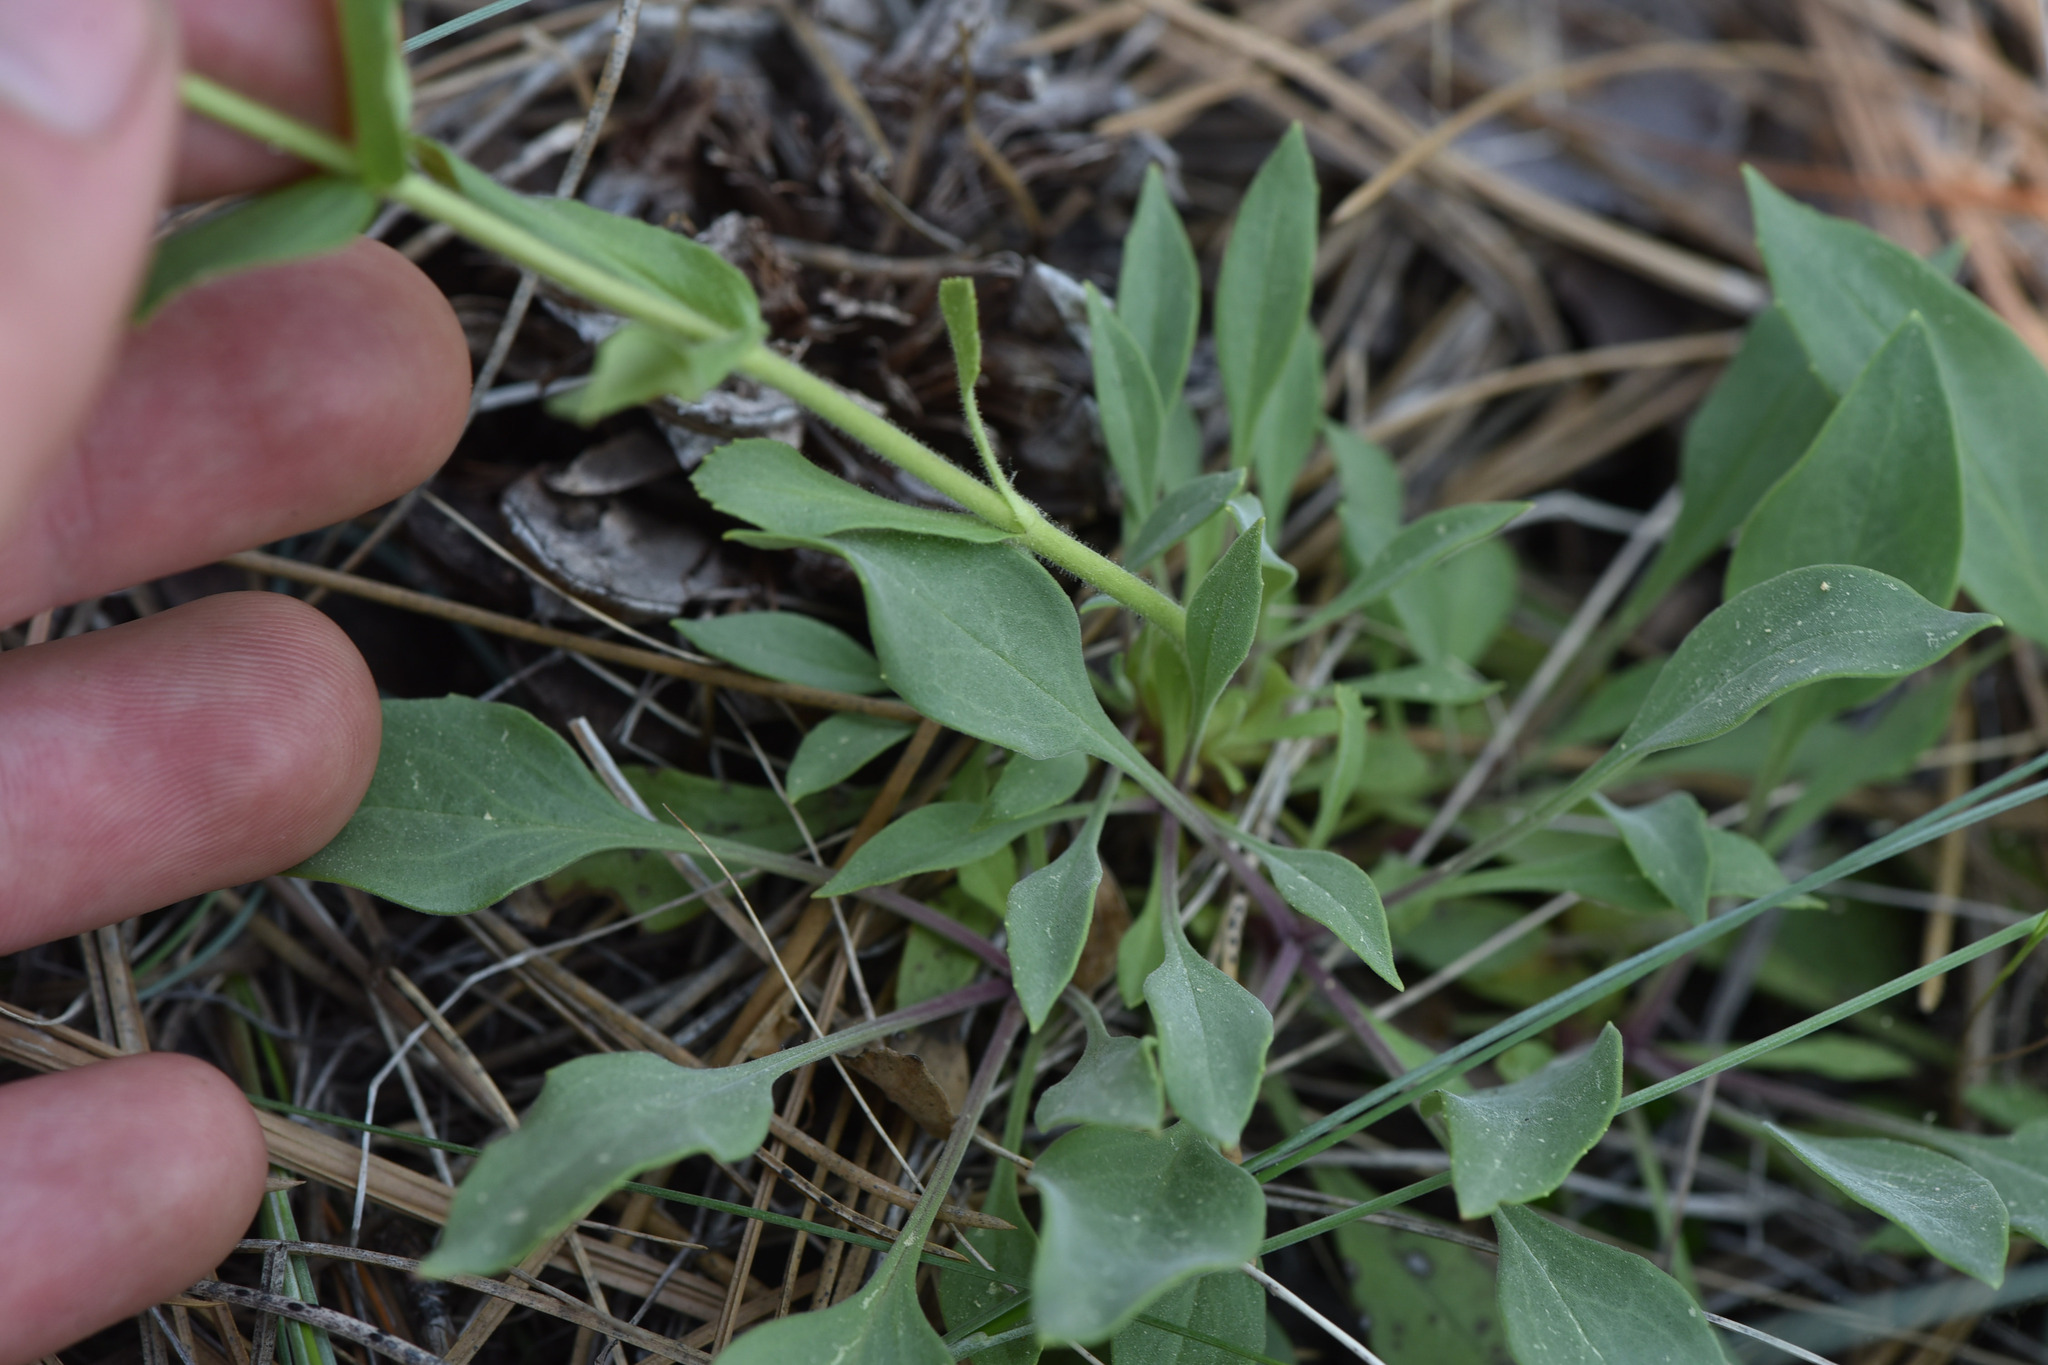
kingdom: Plantae
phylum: Tracheophyta
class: Magnoliopsida
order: Lamiales
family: Plantaginaceae
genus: Penstemon
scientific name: Penstemon pruinosus
